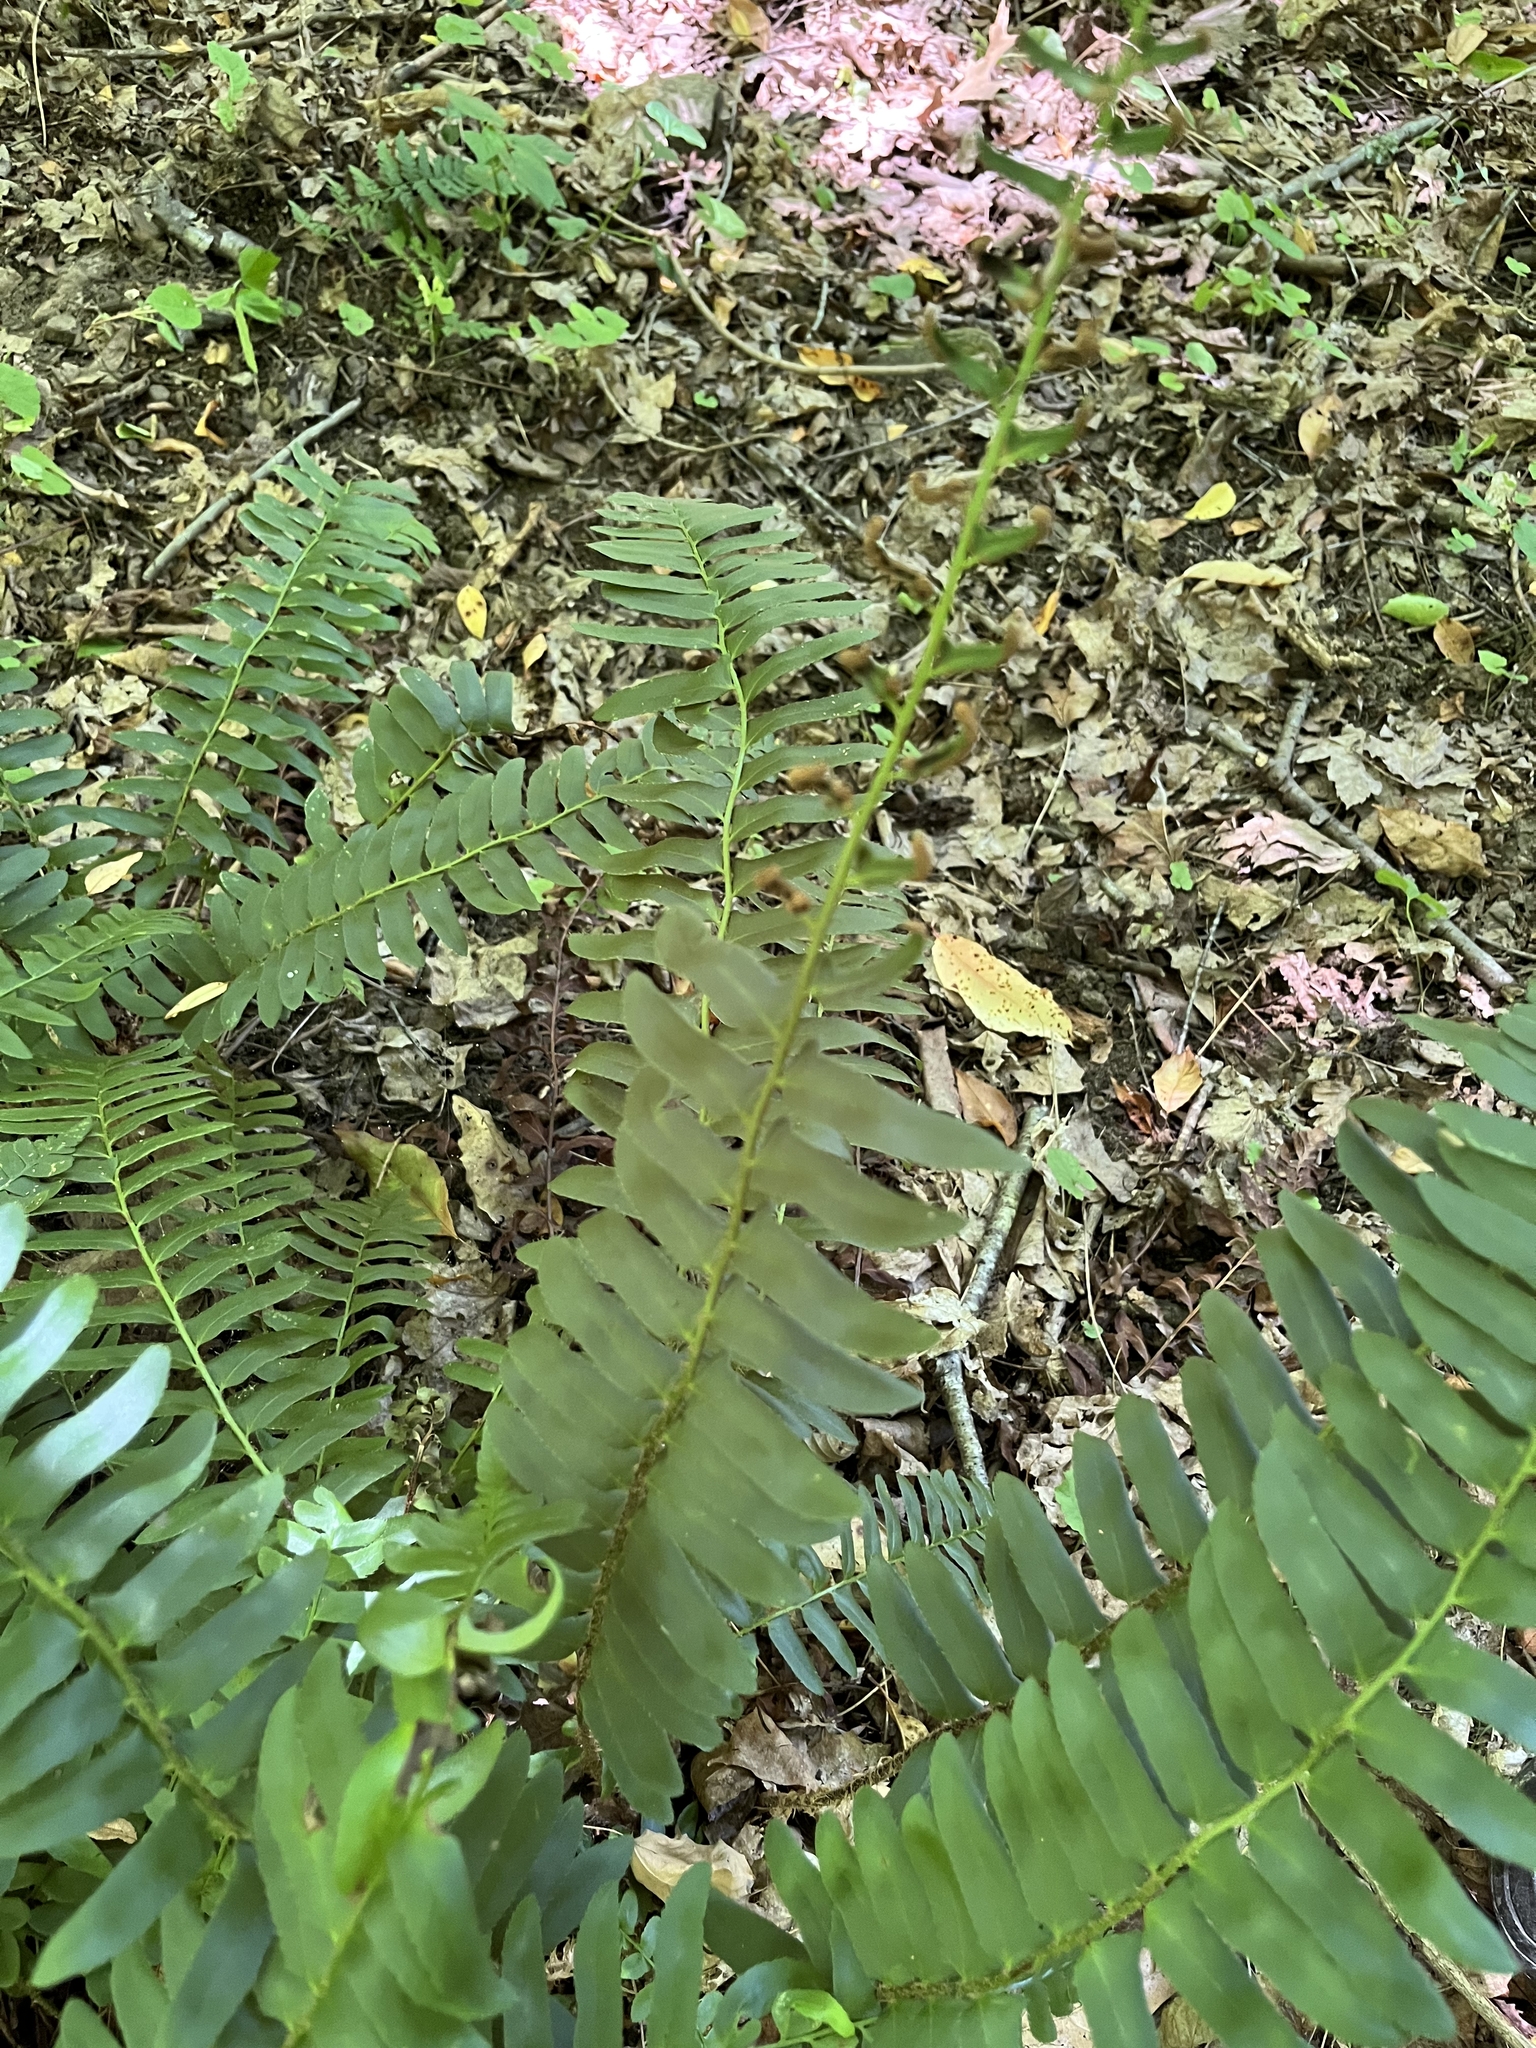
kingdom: Plantae
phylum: Tracheophyta
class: Polypodiopsida
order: Polypodiales
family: Dryopteridaceae
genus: Polystichum
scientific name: Polystichum acrostichoides
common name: Christmas fern
